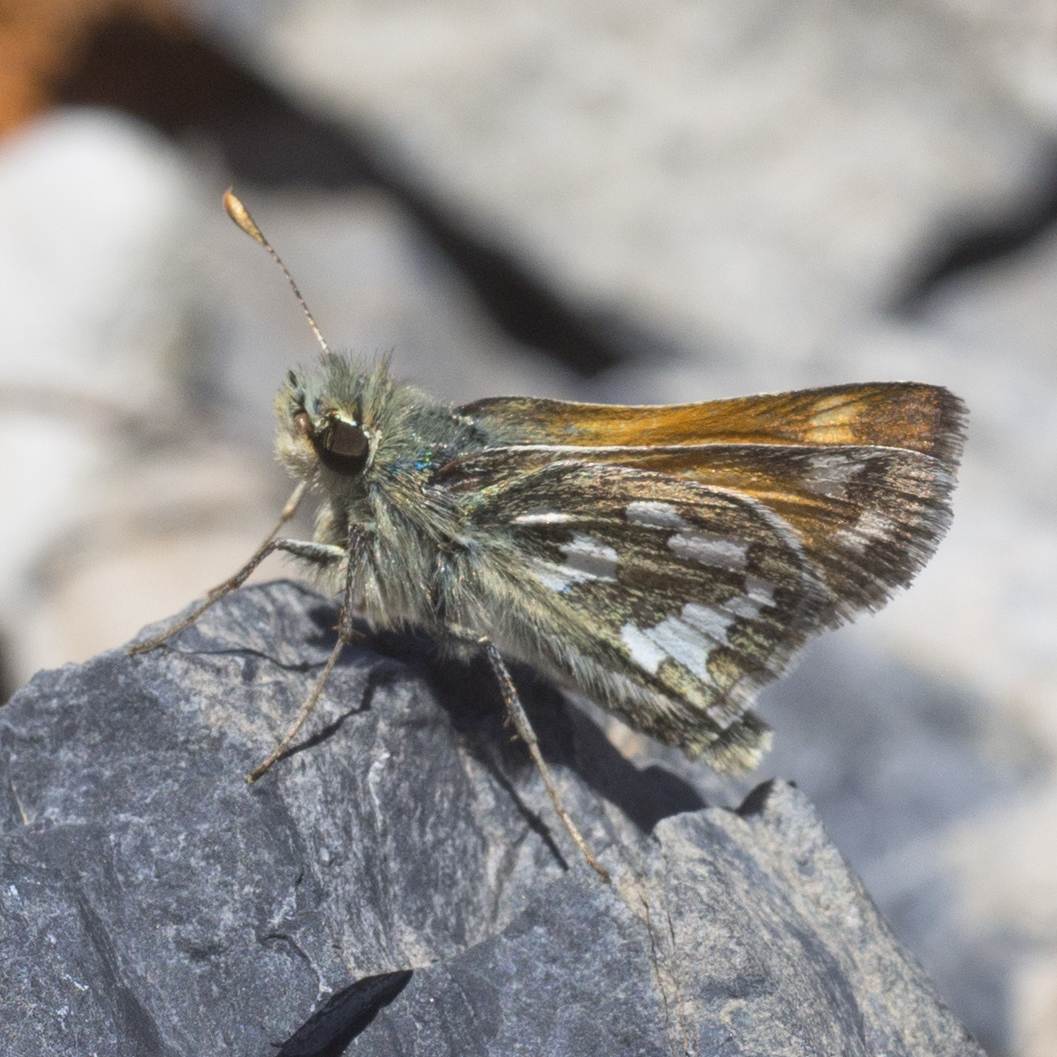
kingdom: Animalia
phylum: Arthropoda
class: Insecta
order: Lepidoptera
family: Hesperiidae
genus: Hesperia
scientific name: Hesperia nevada
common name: Nevada skipper
